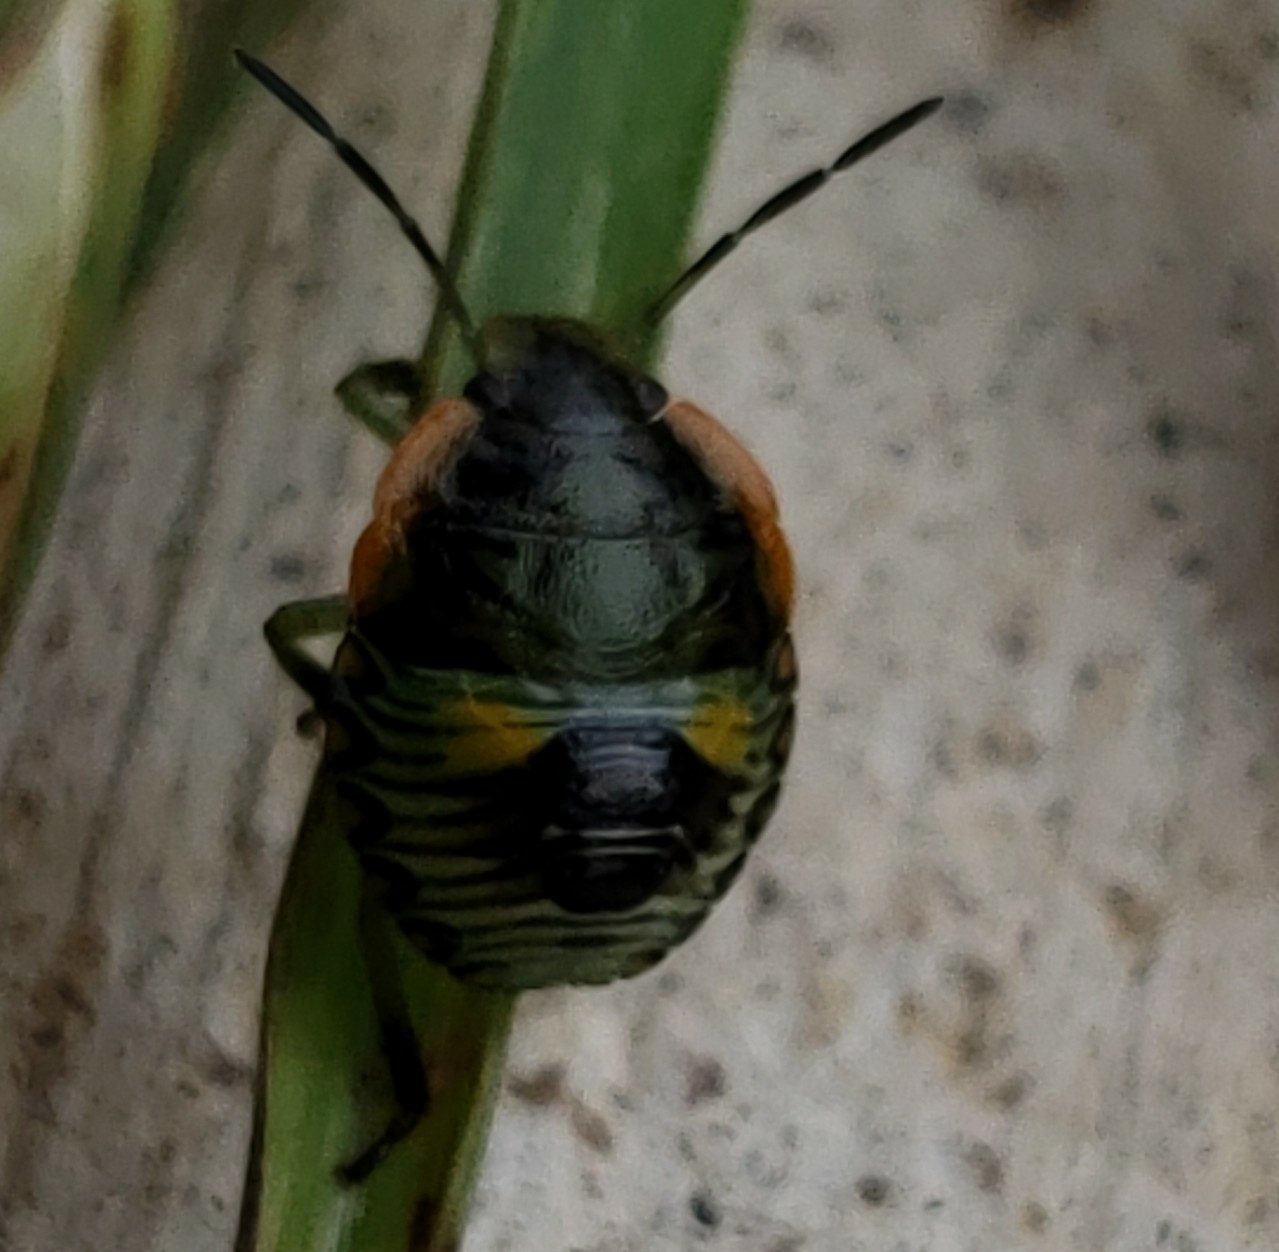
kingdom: Animalia
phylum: Arthropoda
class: Insecta
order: Hemiptera
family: Pentatomidae
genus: Chinavia
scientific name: Chinavia hilaris
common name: Green stink bug
